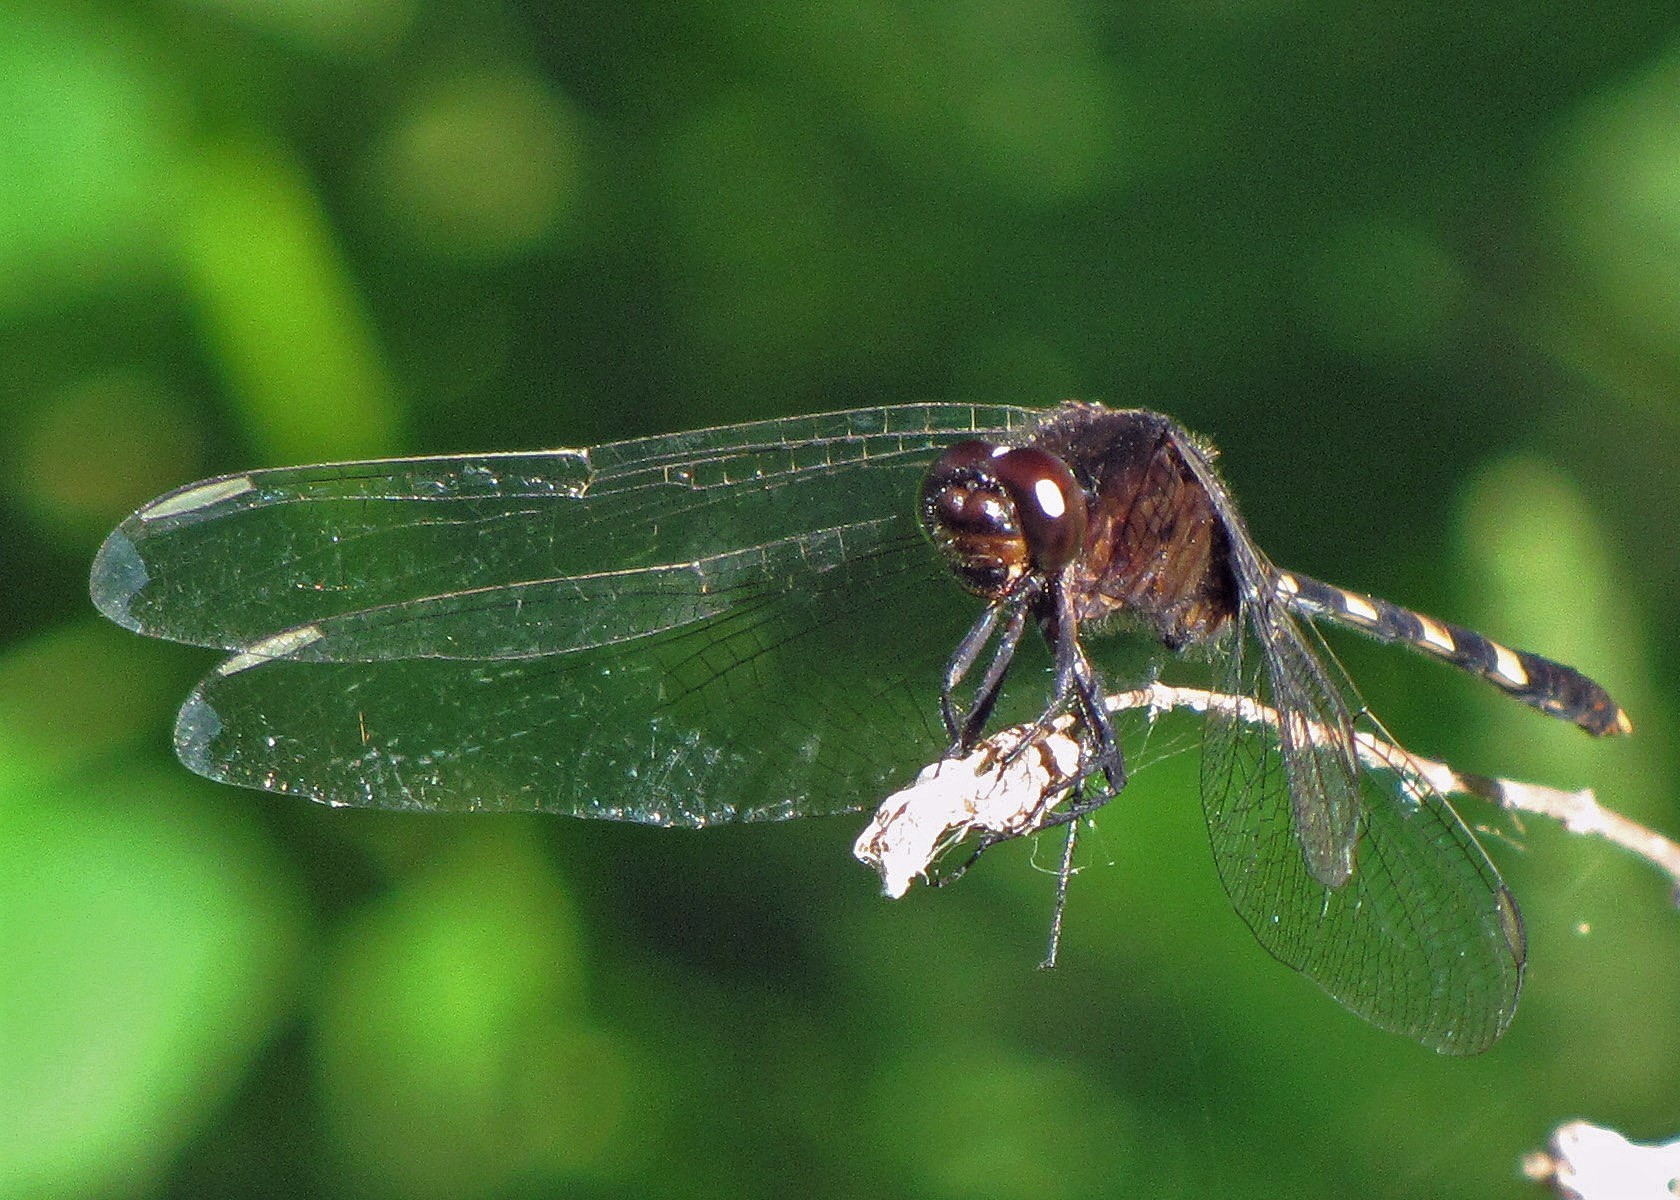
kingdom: Animalia
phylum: Arthropoda
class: Insecta
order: Odonata
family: Libellulidae
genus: Erythemis
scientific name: Erythemis plebeja
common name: Pin-tailed pondhawk
